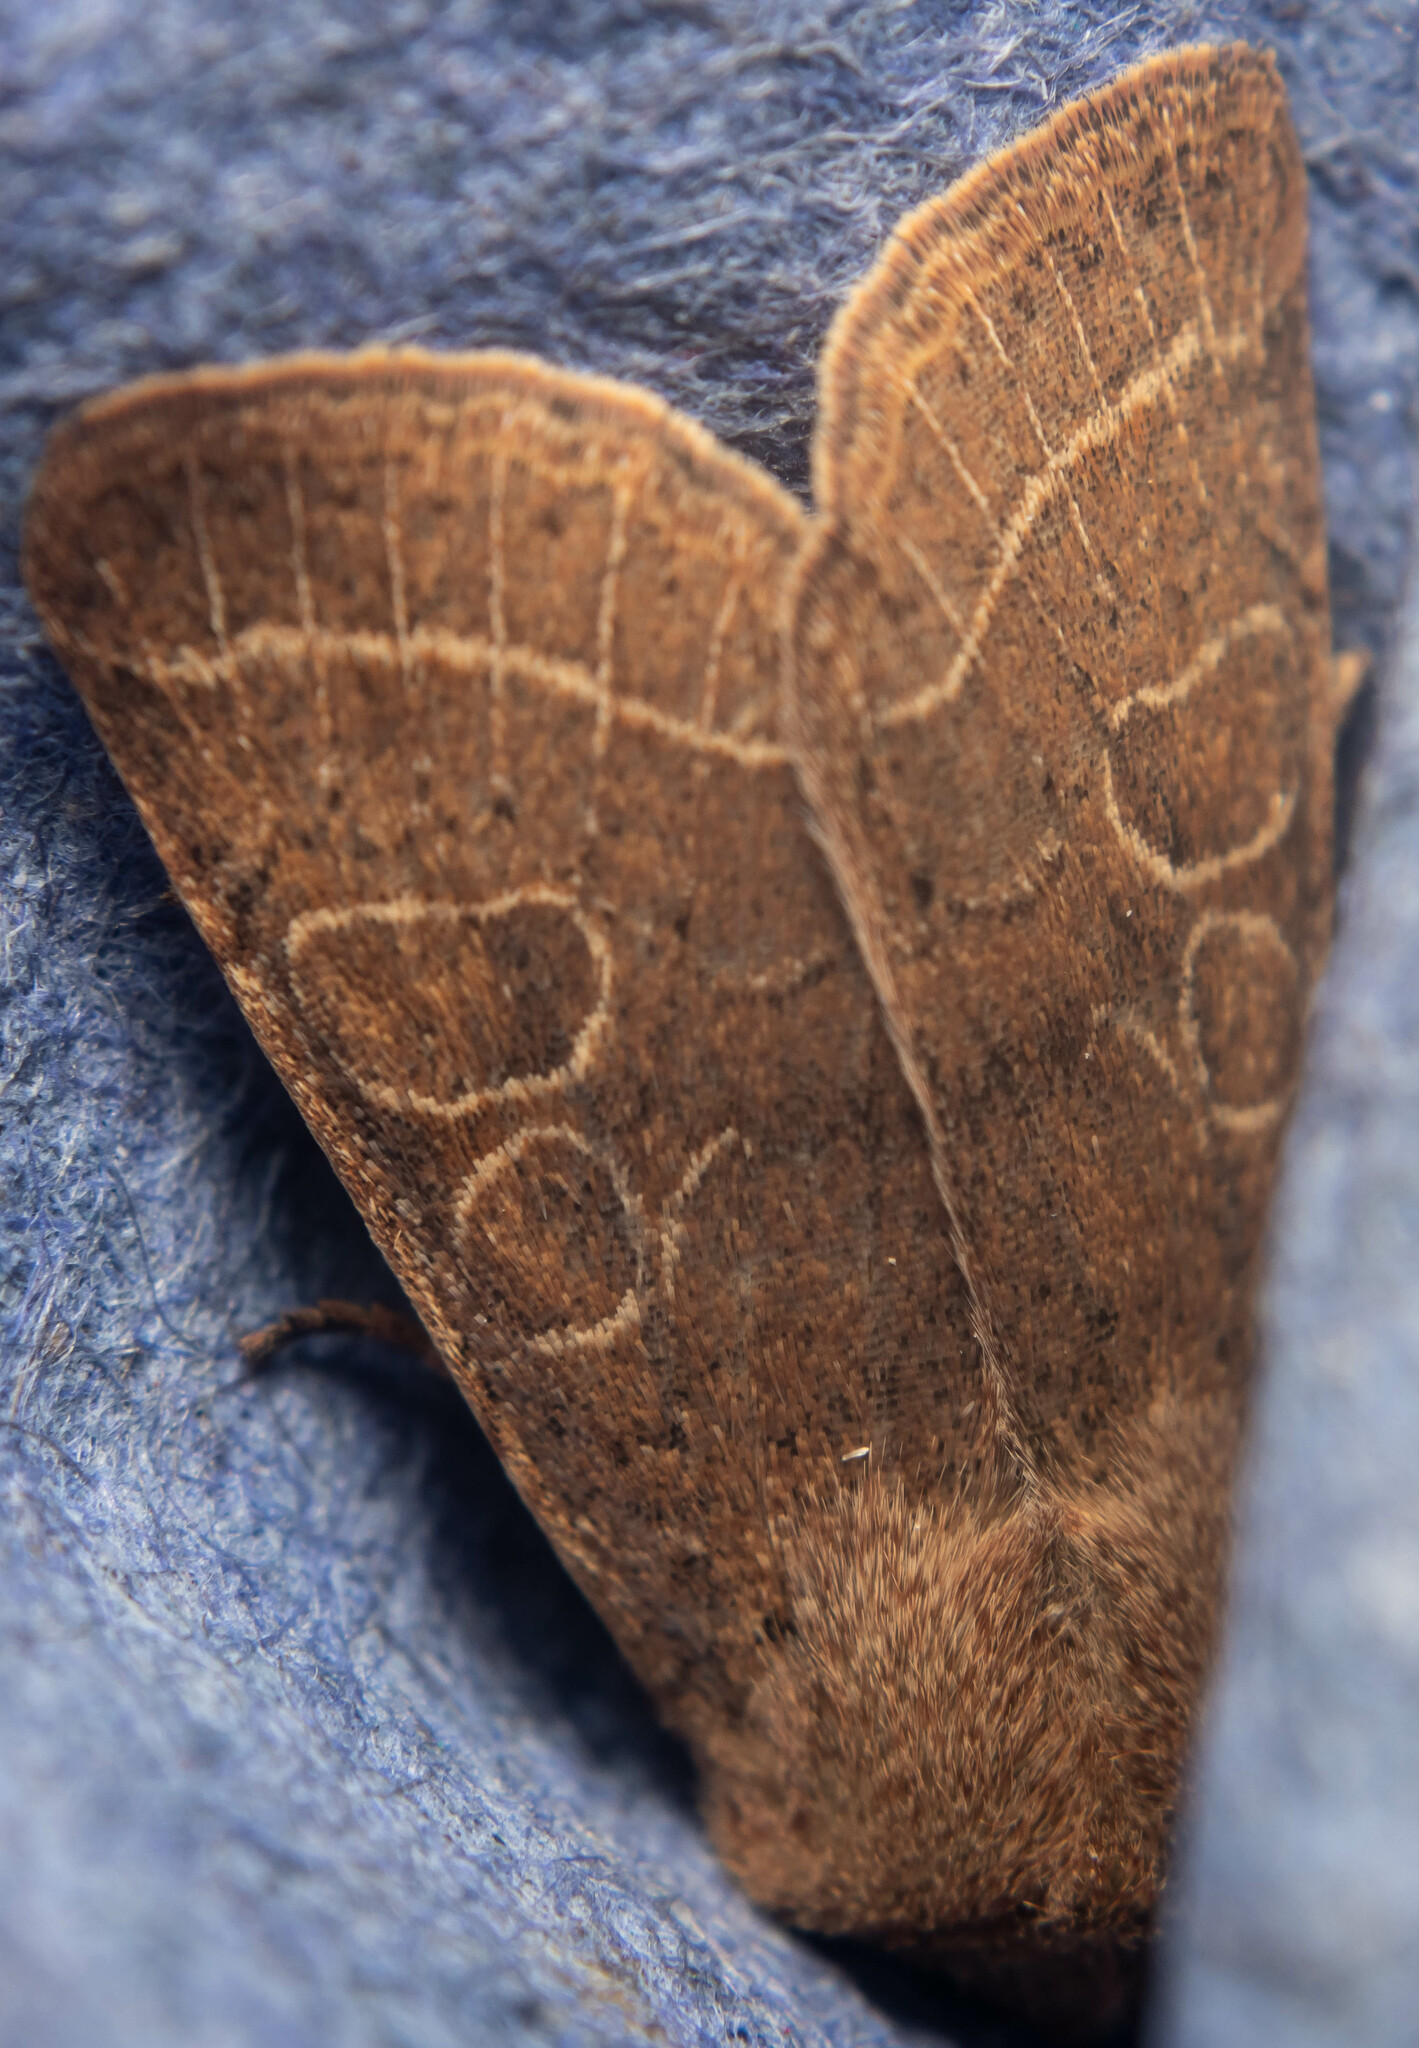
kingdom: Animalia
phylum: Arthropoda
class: Insecta
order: Lepidoptera
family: Noctuidae
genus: Orthosia
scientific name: Orthosia cerasi
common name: Common quaker
